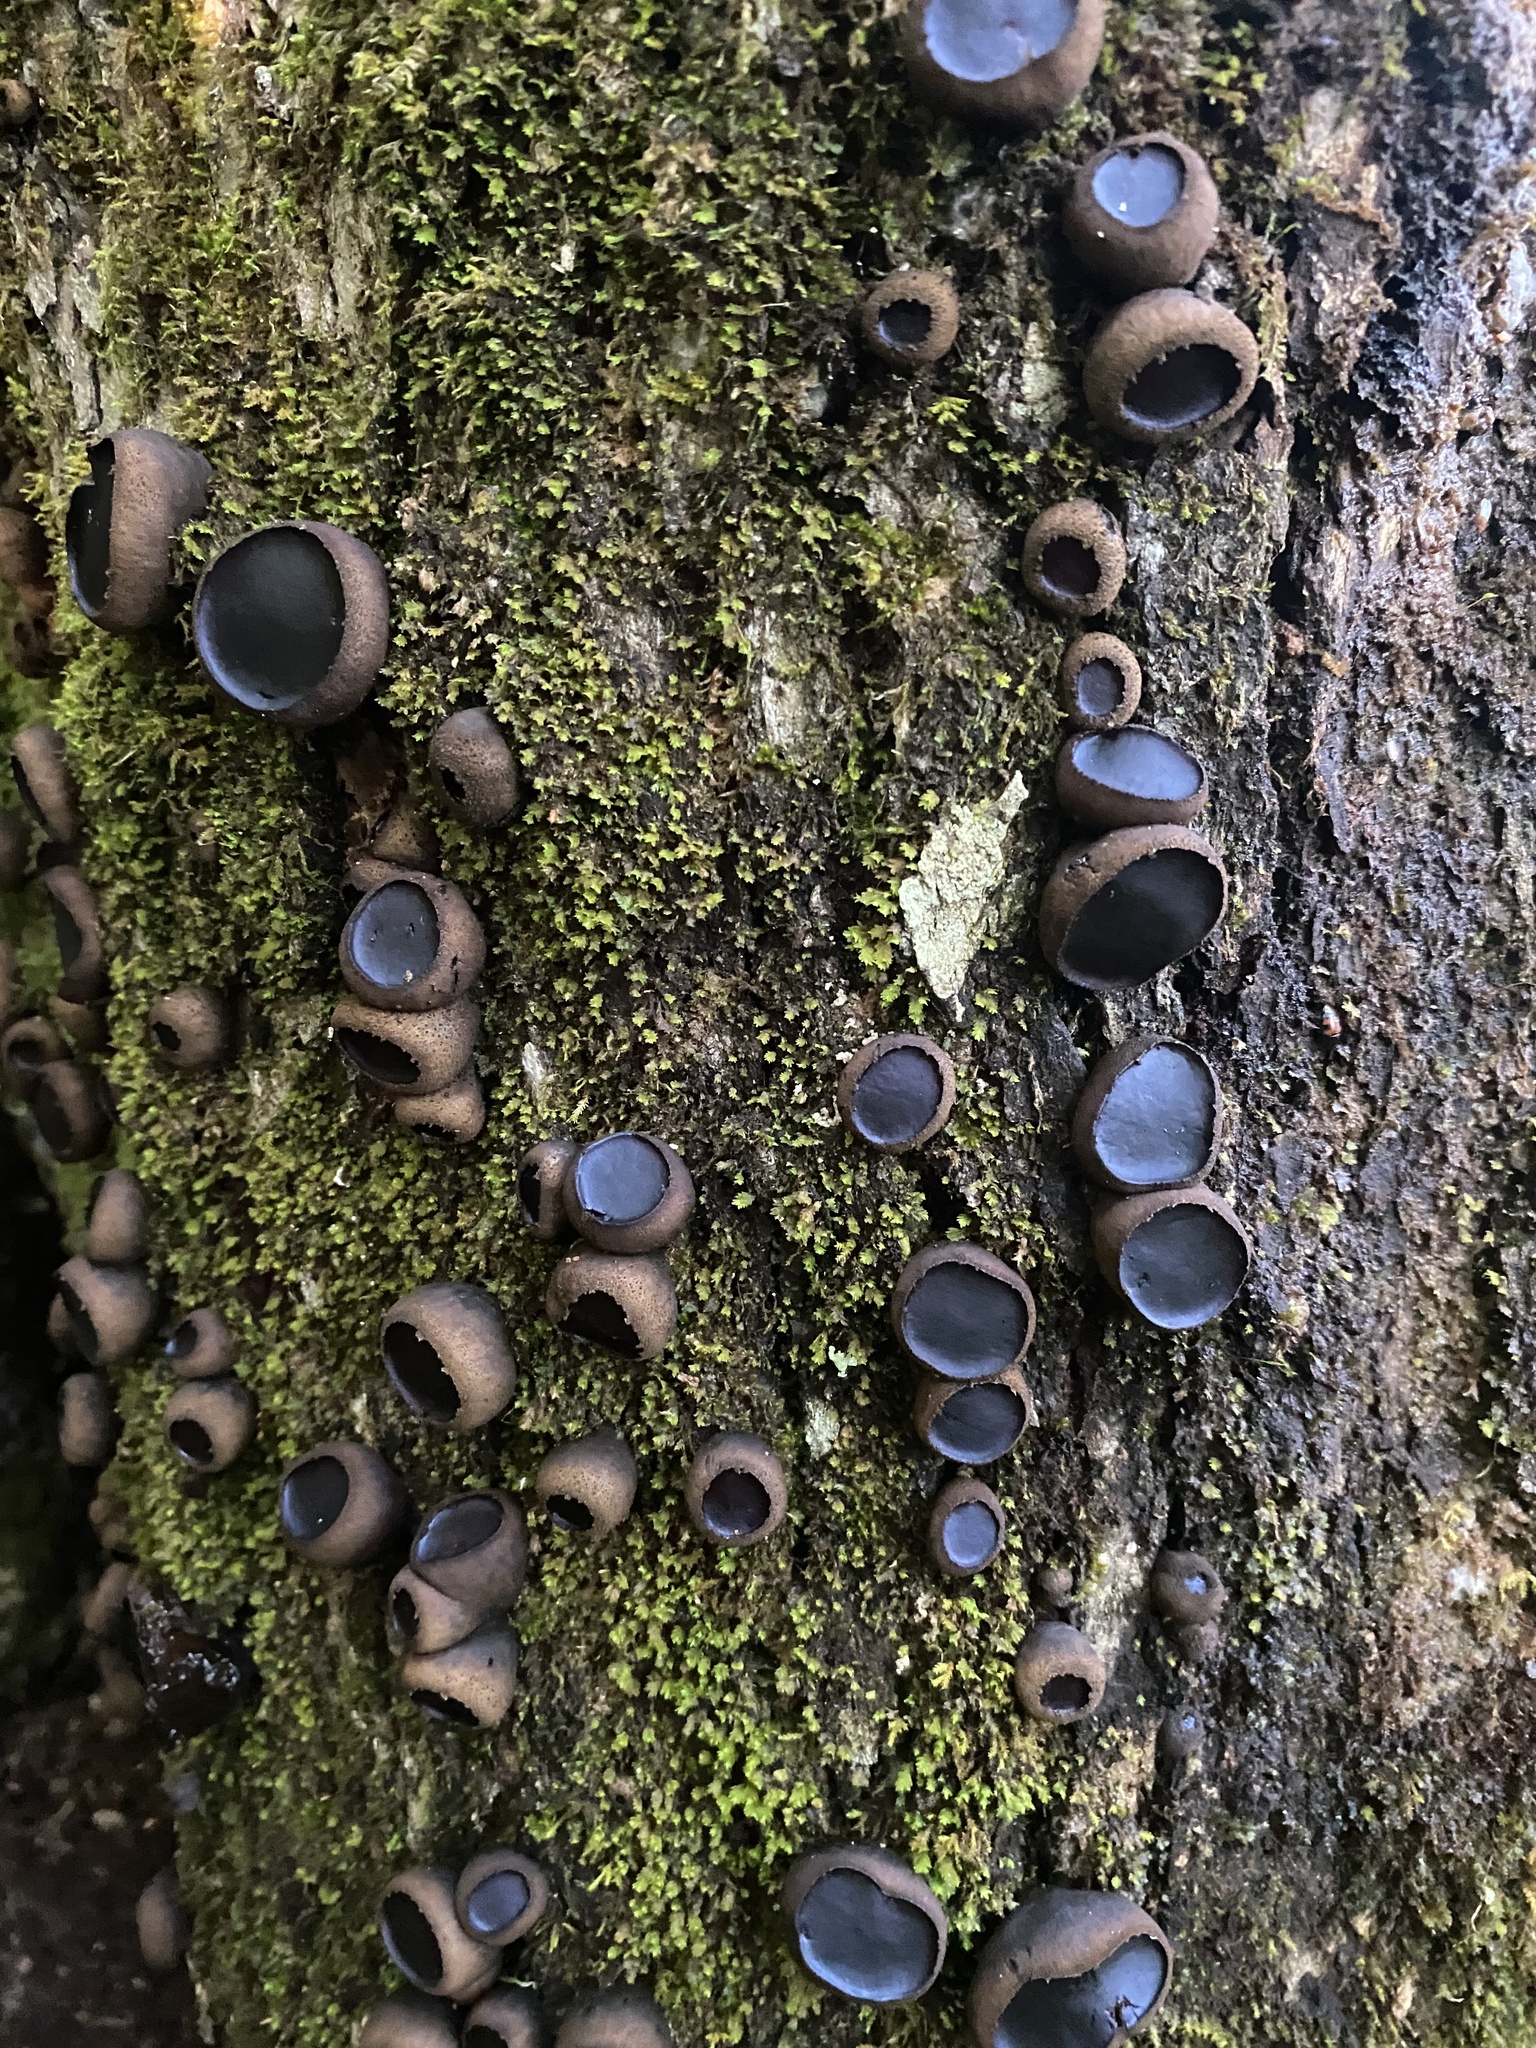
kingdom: Fungi
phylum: Ascomycota
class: Leotiomycetes
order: Phacidiales
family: Phacidiaceae
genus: Bulgaria
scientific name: Bulgaria inquinans
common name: Black bulgar
